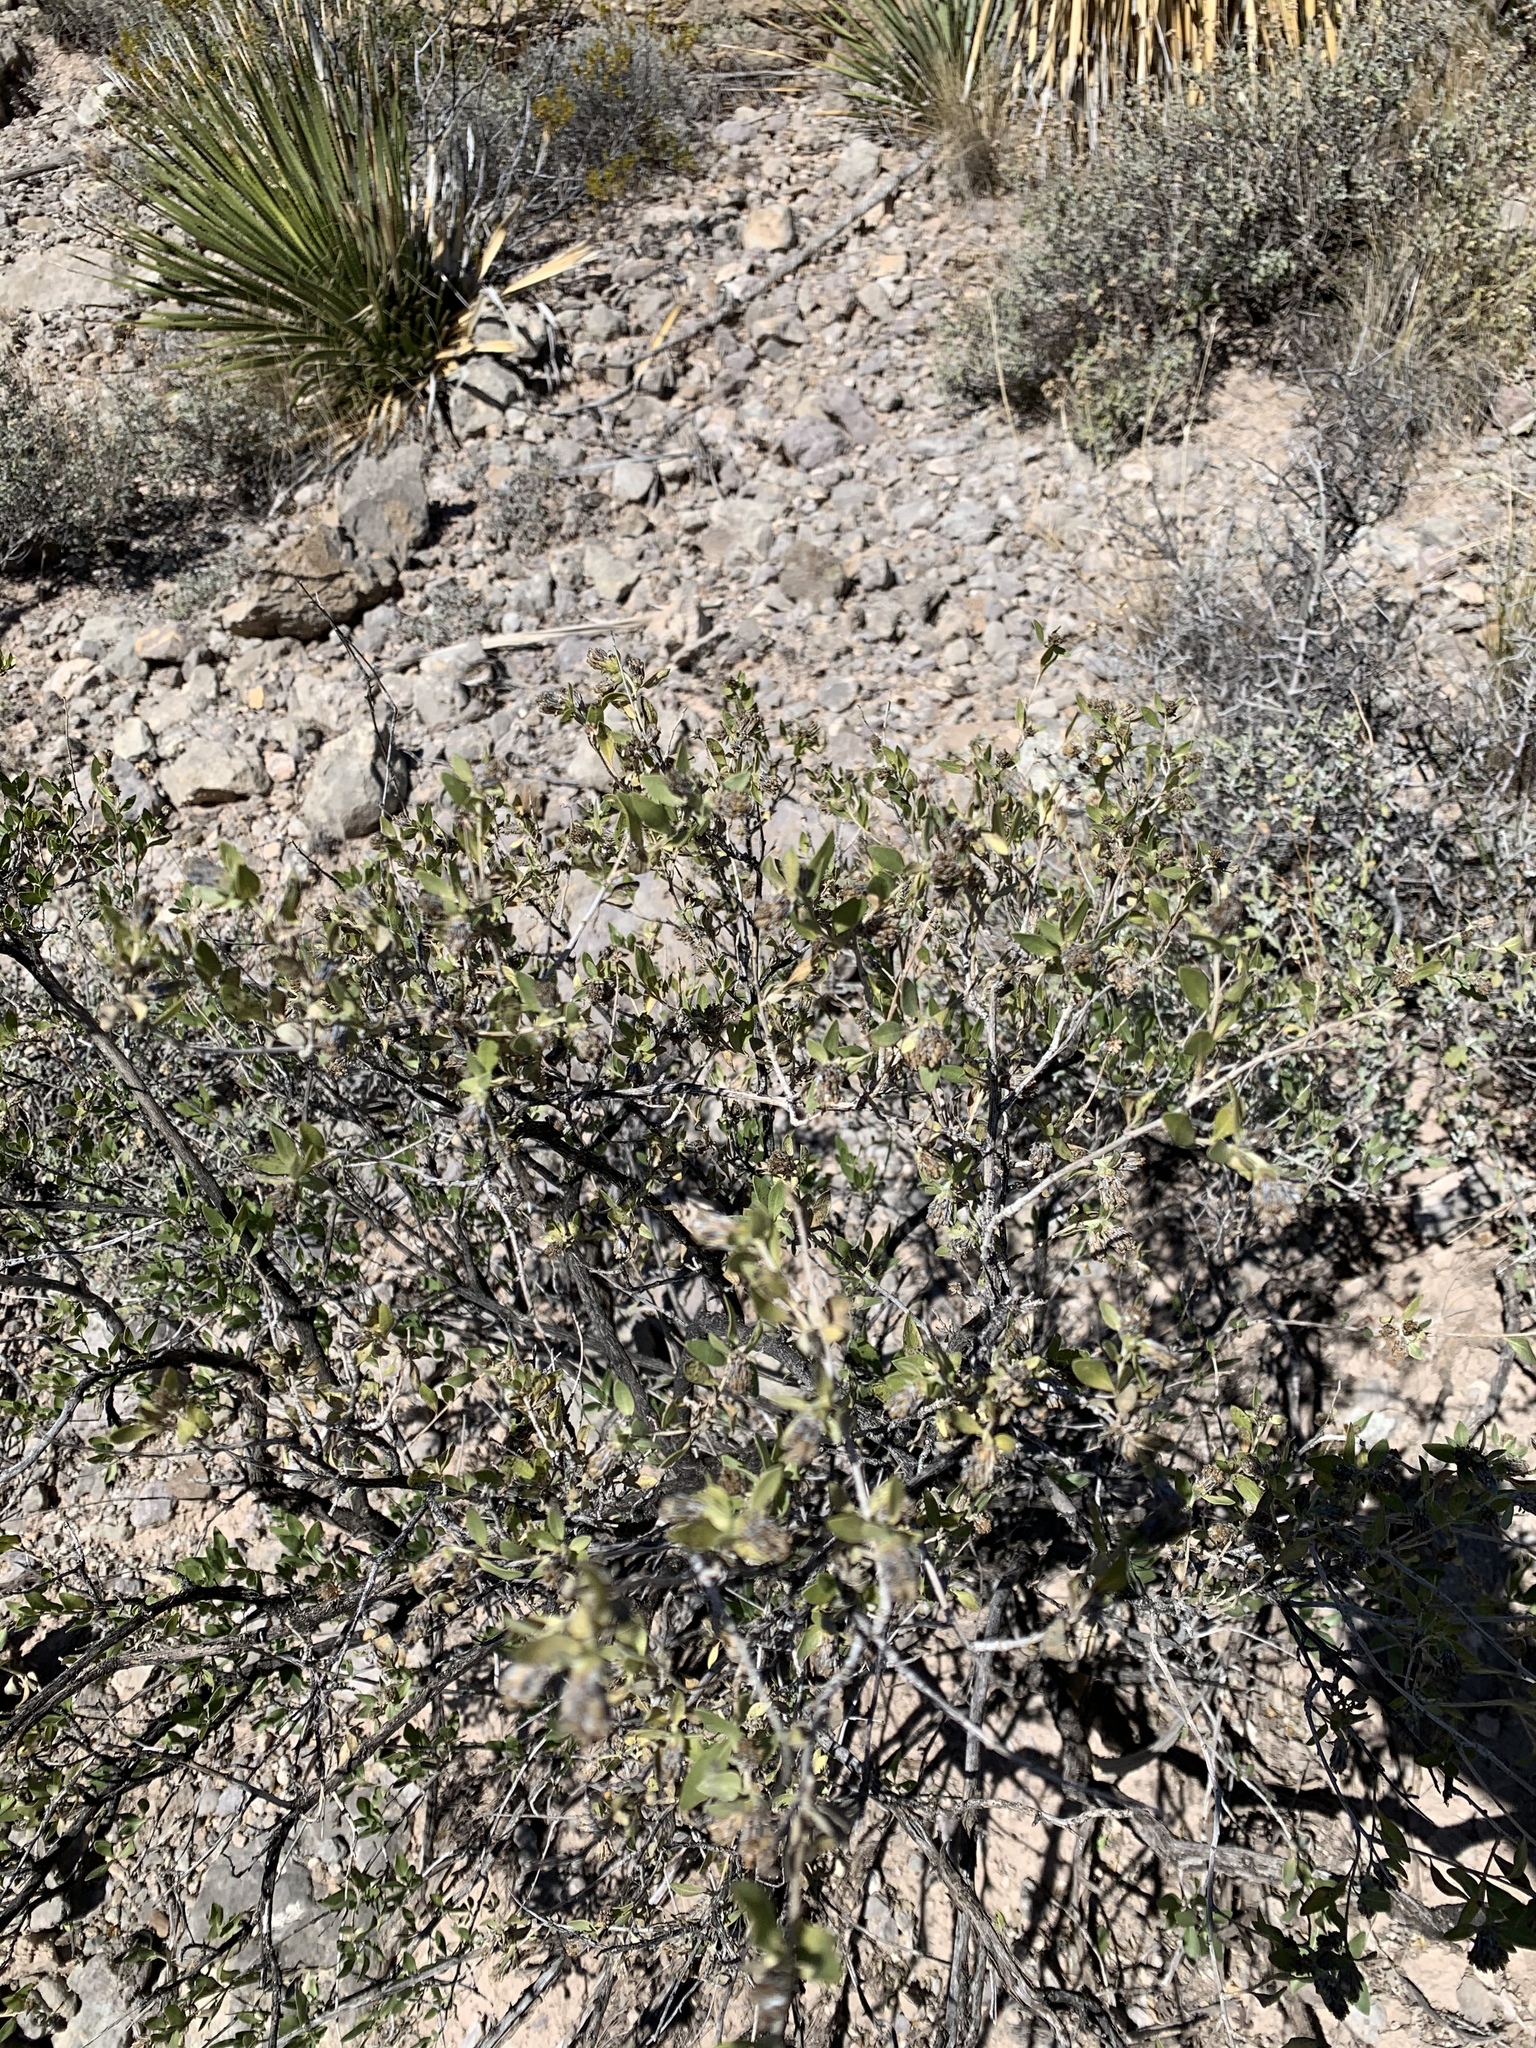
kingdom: Plantae
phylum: Tracheophyta
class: Magnoliopsida
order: Asterales
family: Asteraceae
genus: Flourensia
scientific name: Flourensia cernua
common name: Varnishbush
